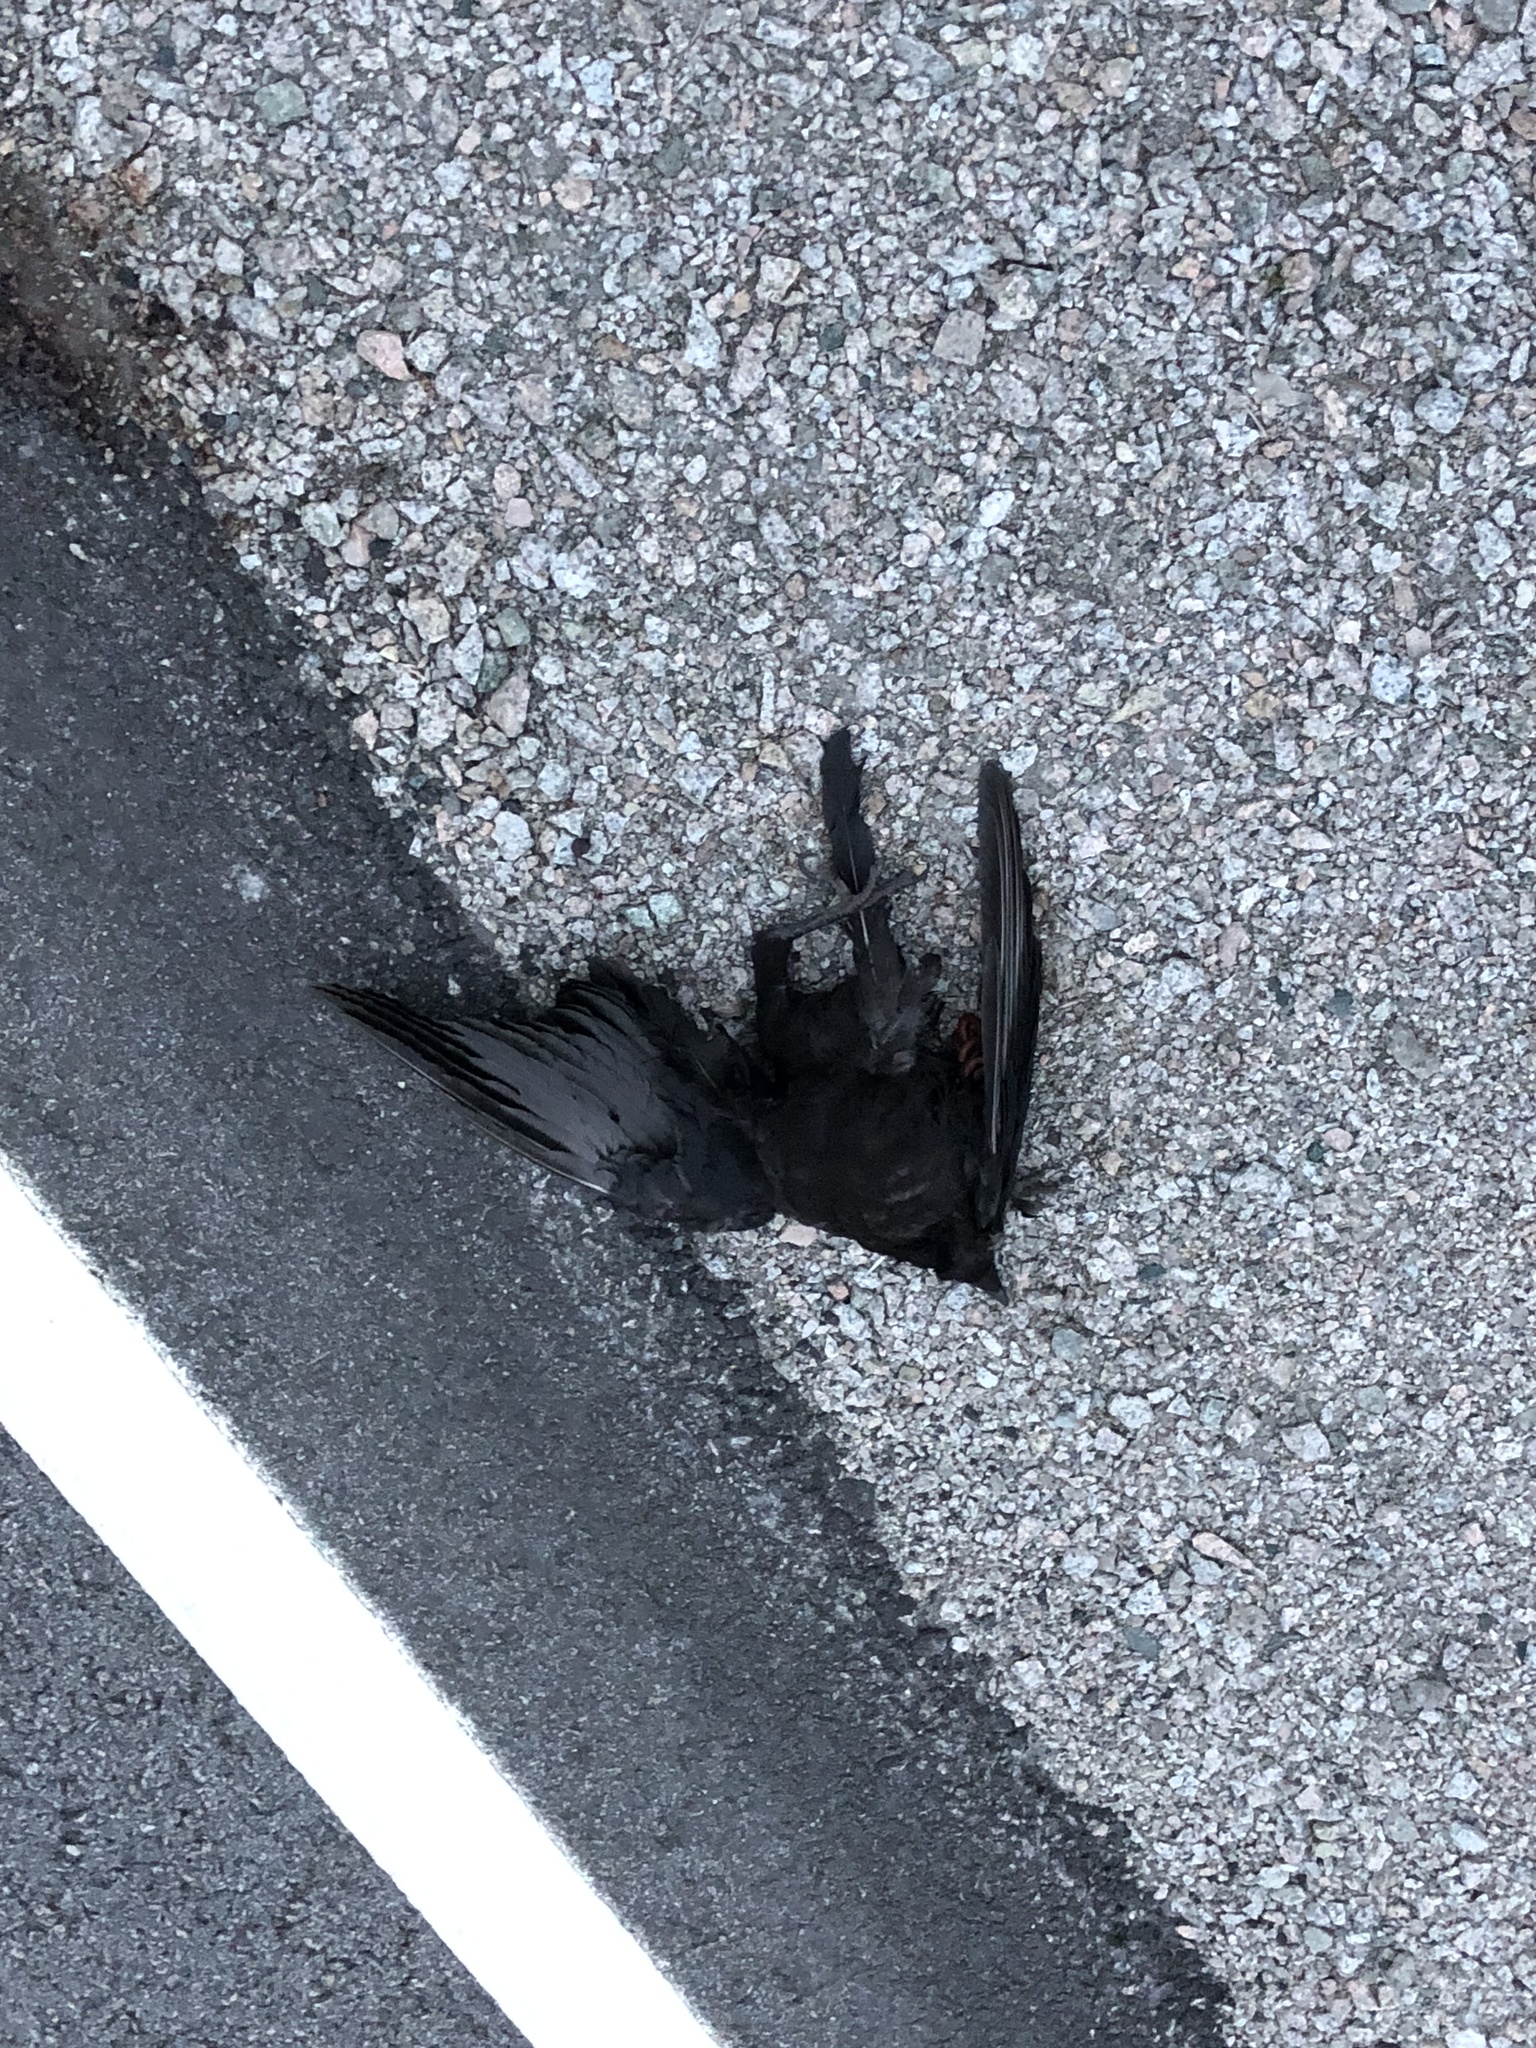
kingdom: Animalia
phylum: Chordata
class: Aves
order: Passeriformes
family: Corvidae
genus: Corvus
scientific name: Corvus brachyrhynchos
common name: American crow
